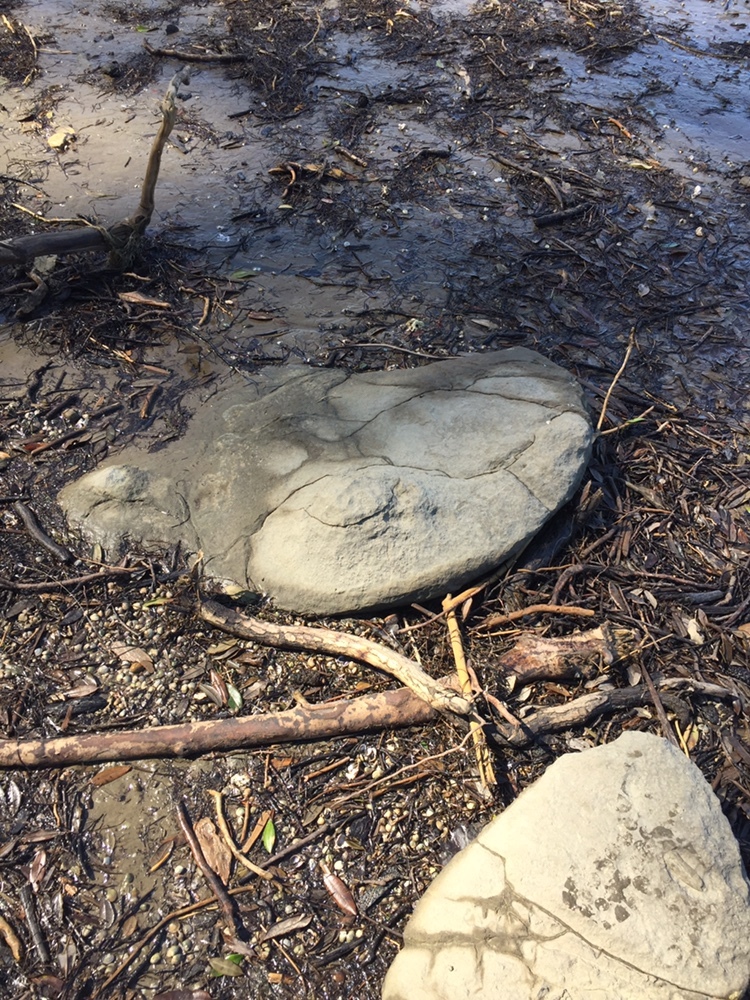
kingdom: Animalia
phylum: Arthropoda
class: Insecta
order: Diptera
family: Dolichopodidae
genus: Chimerothalassius
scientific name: Chimerothalassius marshalli
